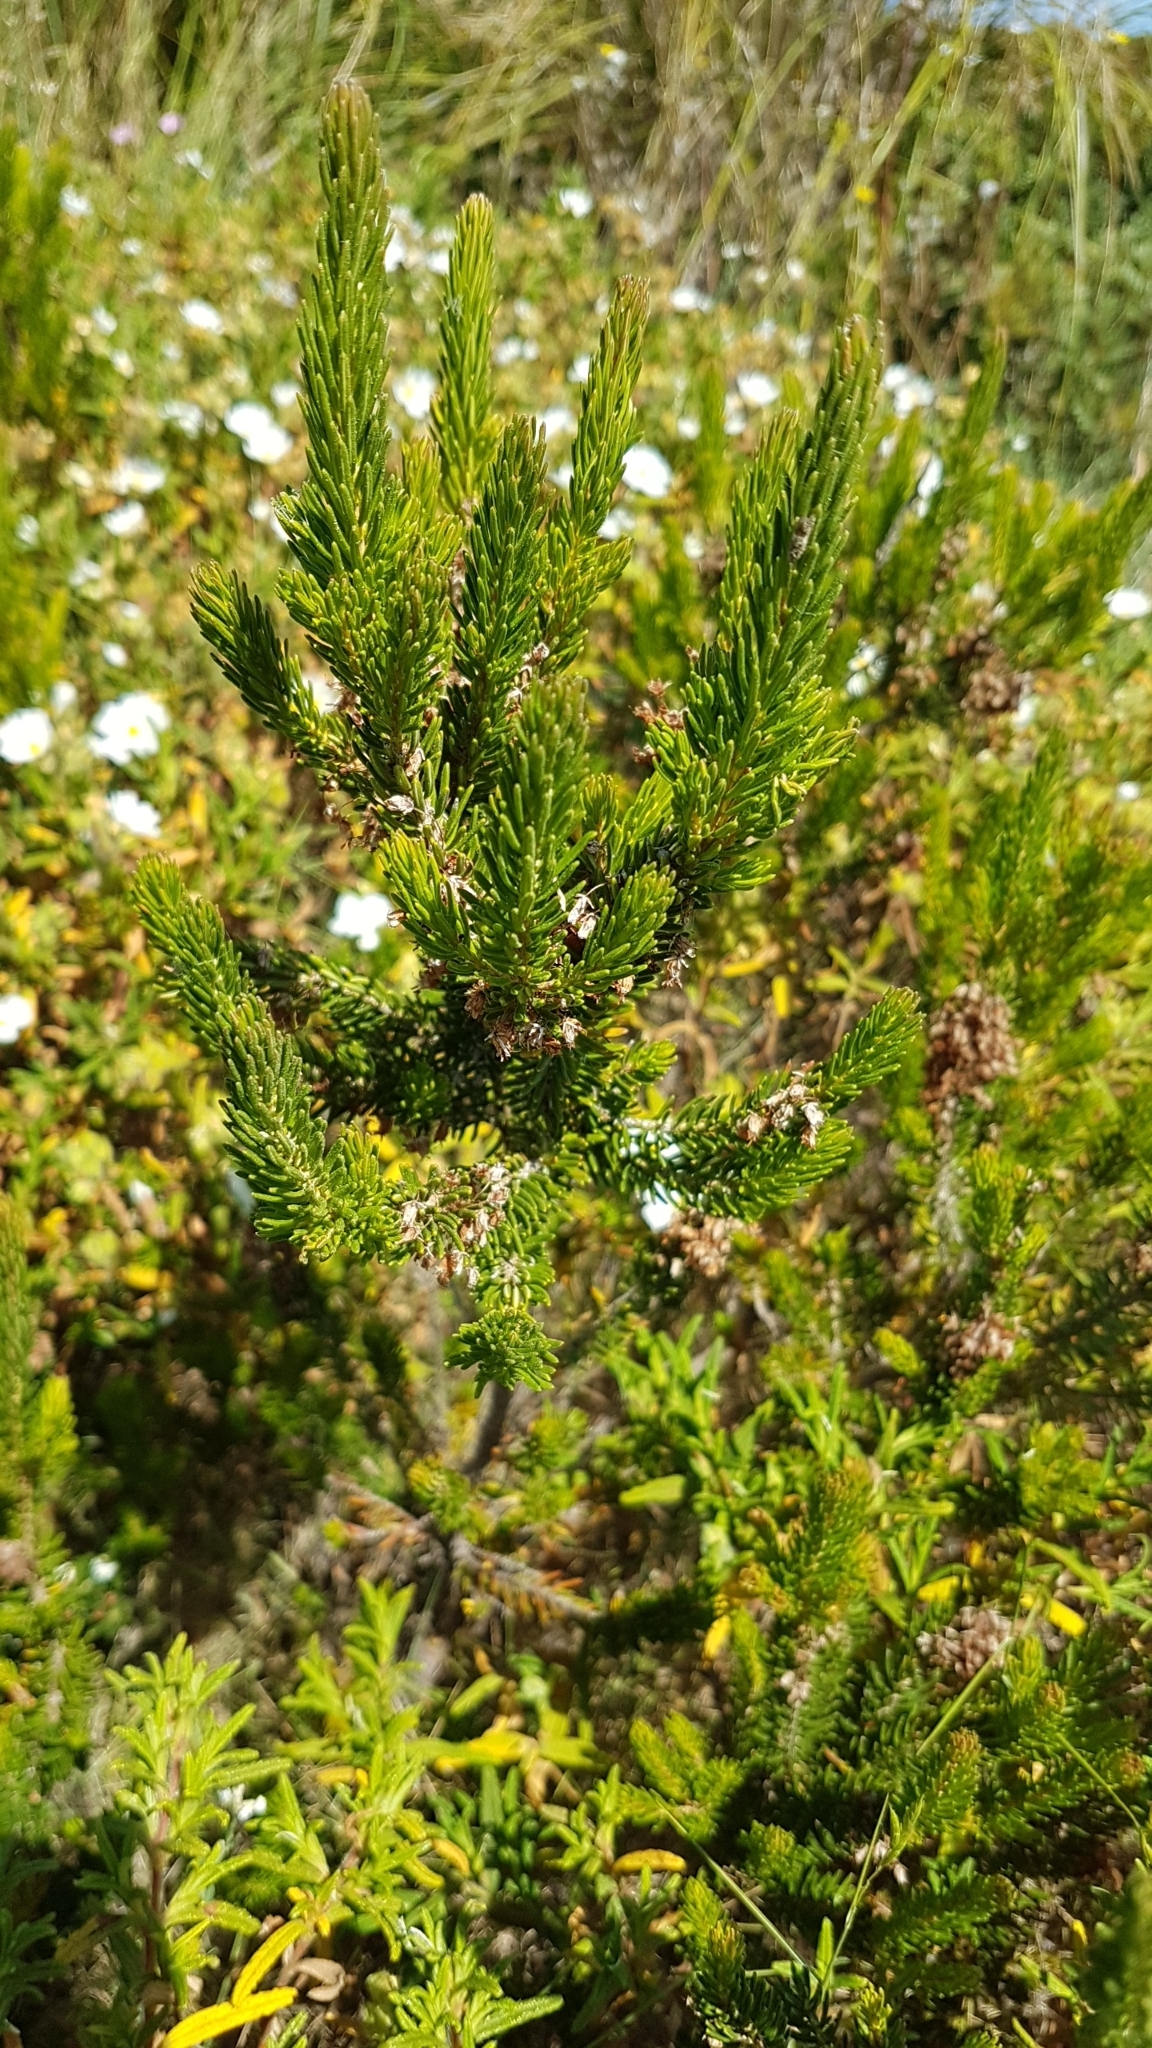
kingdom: Plantae
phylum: Tracheophyta
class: Magnoliopsida
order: Ericales
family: Ericaceae
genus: Erica
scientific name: Erica multiflora
